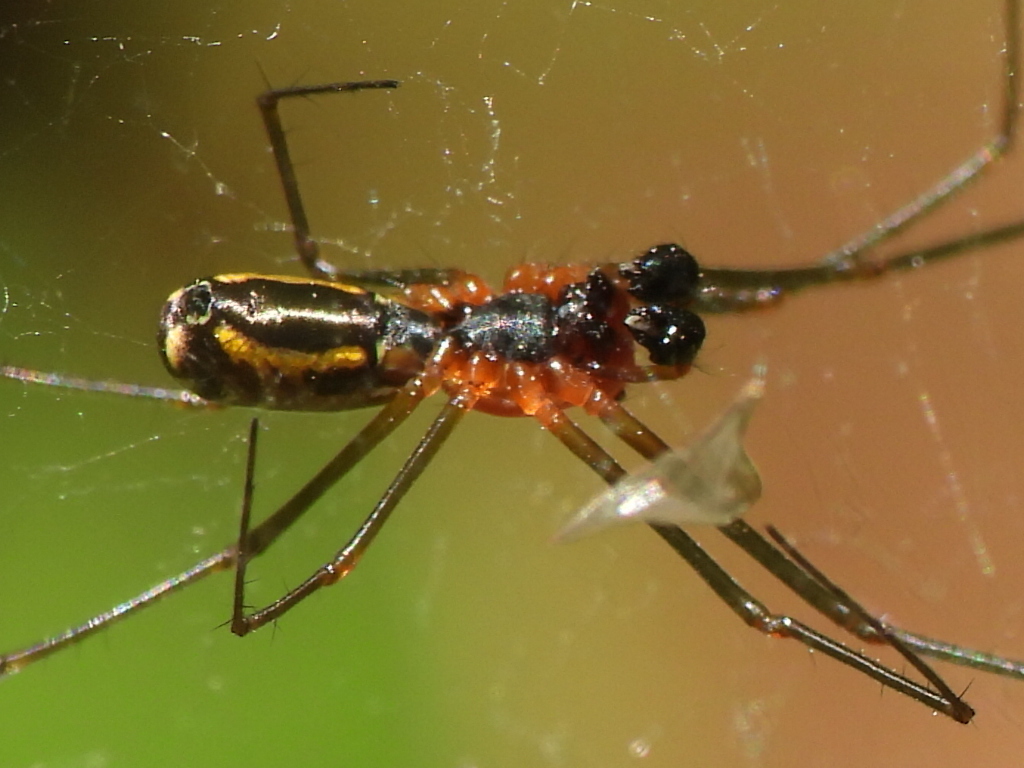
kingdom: Animalia
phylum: Arthropoda
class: Arachnida
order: Araneae
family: Linyphiidae
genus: Neriene
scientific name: Neriene radiata
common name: Filmy dome spider
